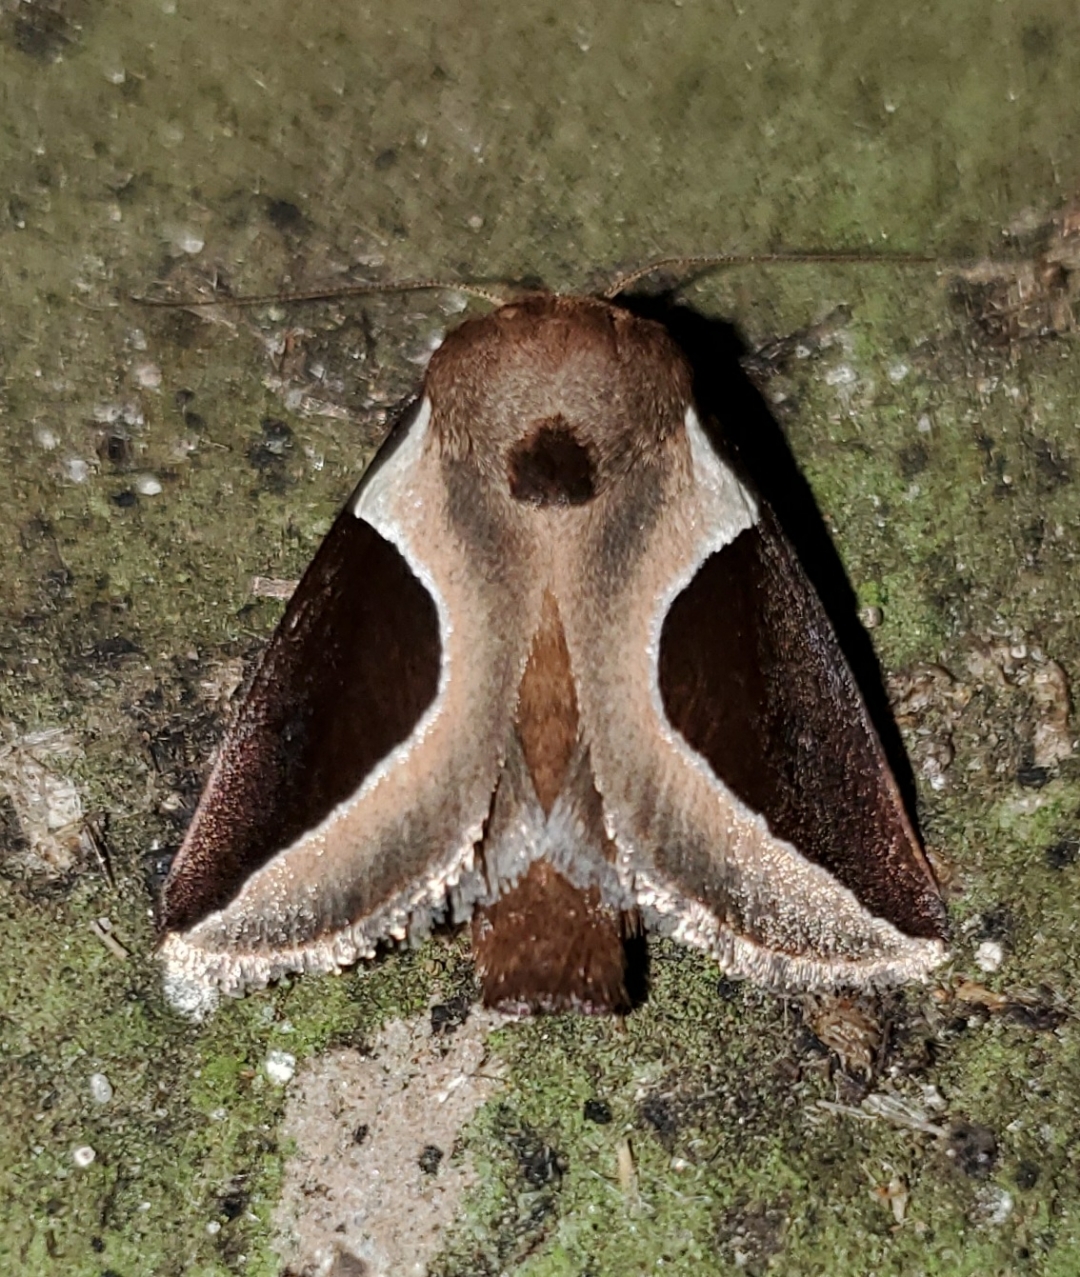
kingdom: Animalia
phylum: Arthropoda
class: Insecta
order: Lepidoptera
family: Limacodidae
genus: Prolimacodes
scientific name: Prolimacodes badia
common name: Skiff moth
